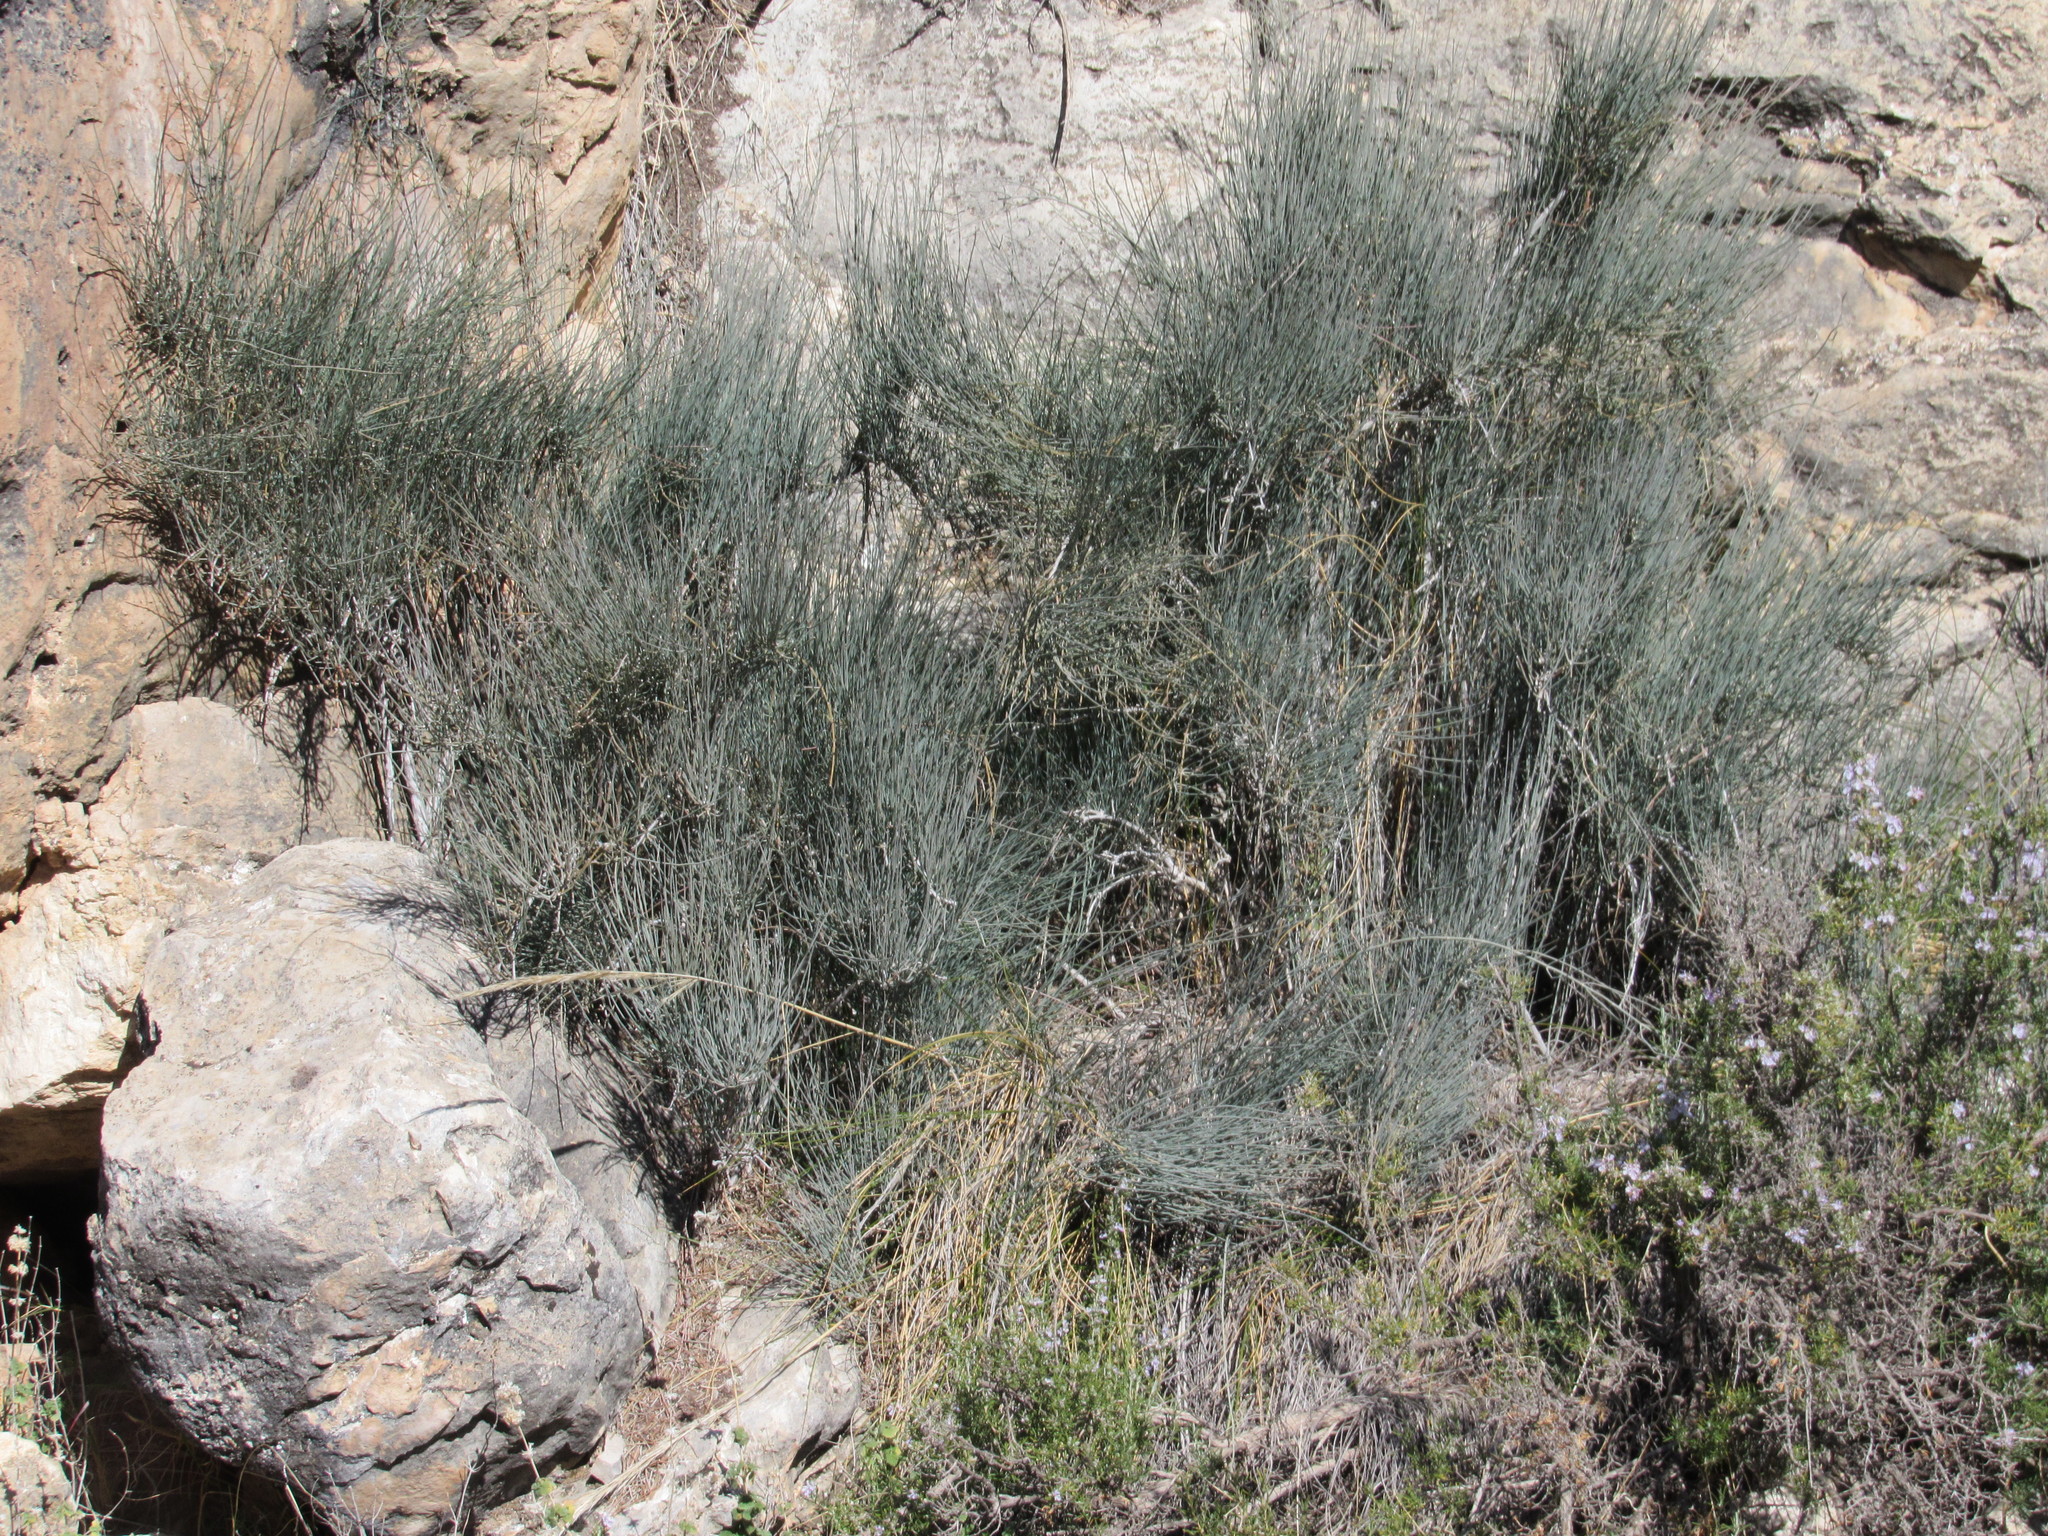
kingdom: Plantae
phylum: Tracheophyta
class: Gnetopsida
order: Ephedrales
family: Ephedraceae
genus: Ephedra
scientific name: Ephedra fragilis
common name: Joint pine
